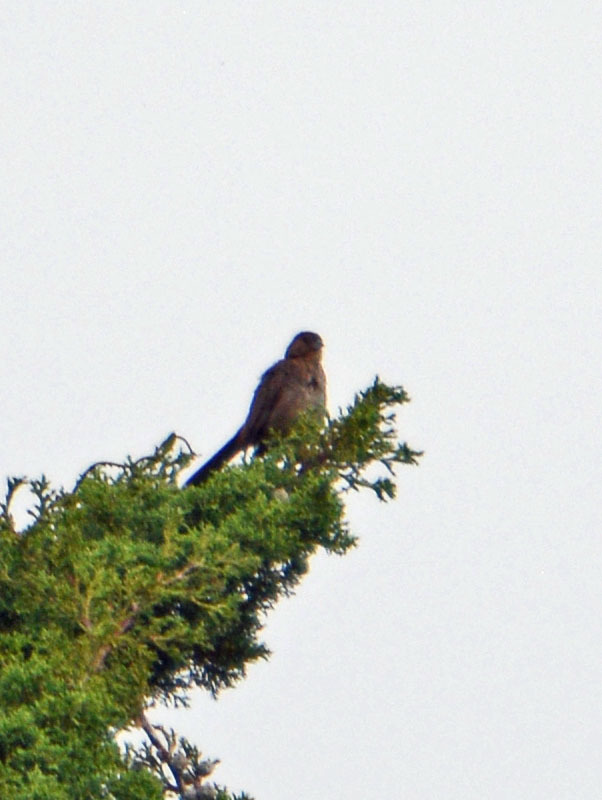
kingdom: Animalia
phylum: Chordata
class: Aves
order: Passeriformes
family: Passerellidae
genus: Melozone
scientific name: Melozone fusca
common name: Canyon towhee
